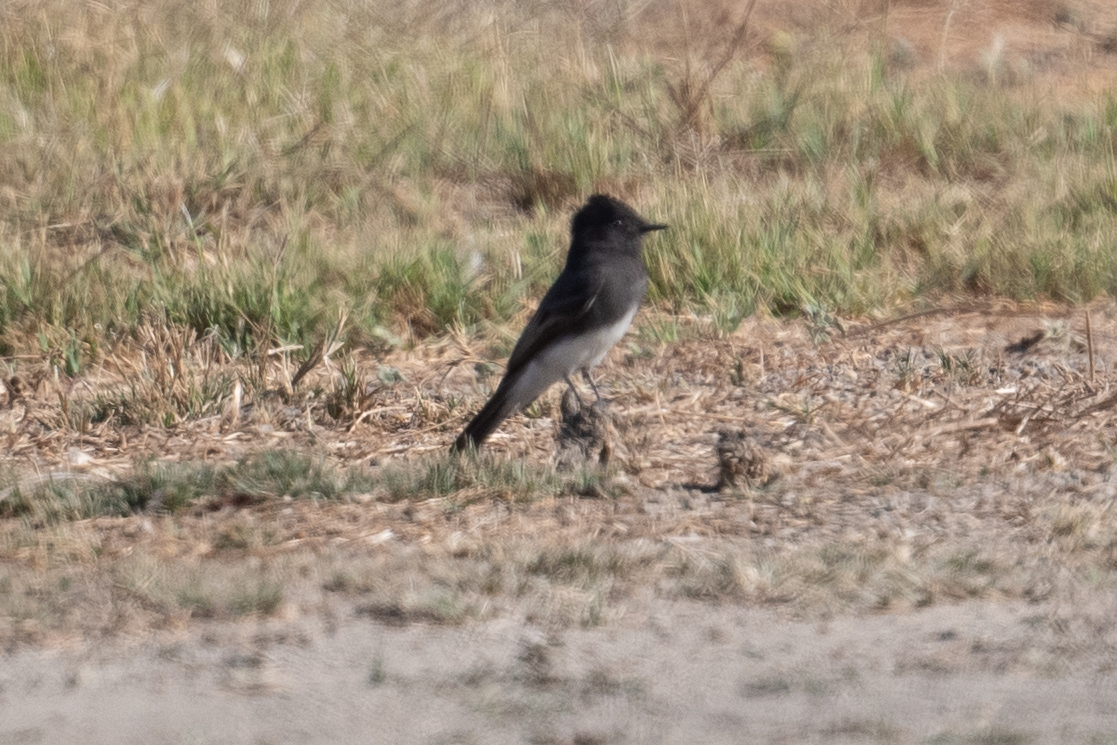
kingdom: Animalia
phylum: Chordata
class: Aves
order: Passeriformes
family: Tyrannidae
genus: Sayornis
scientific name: Sayornis nigricans
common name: Black phoebe
